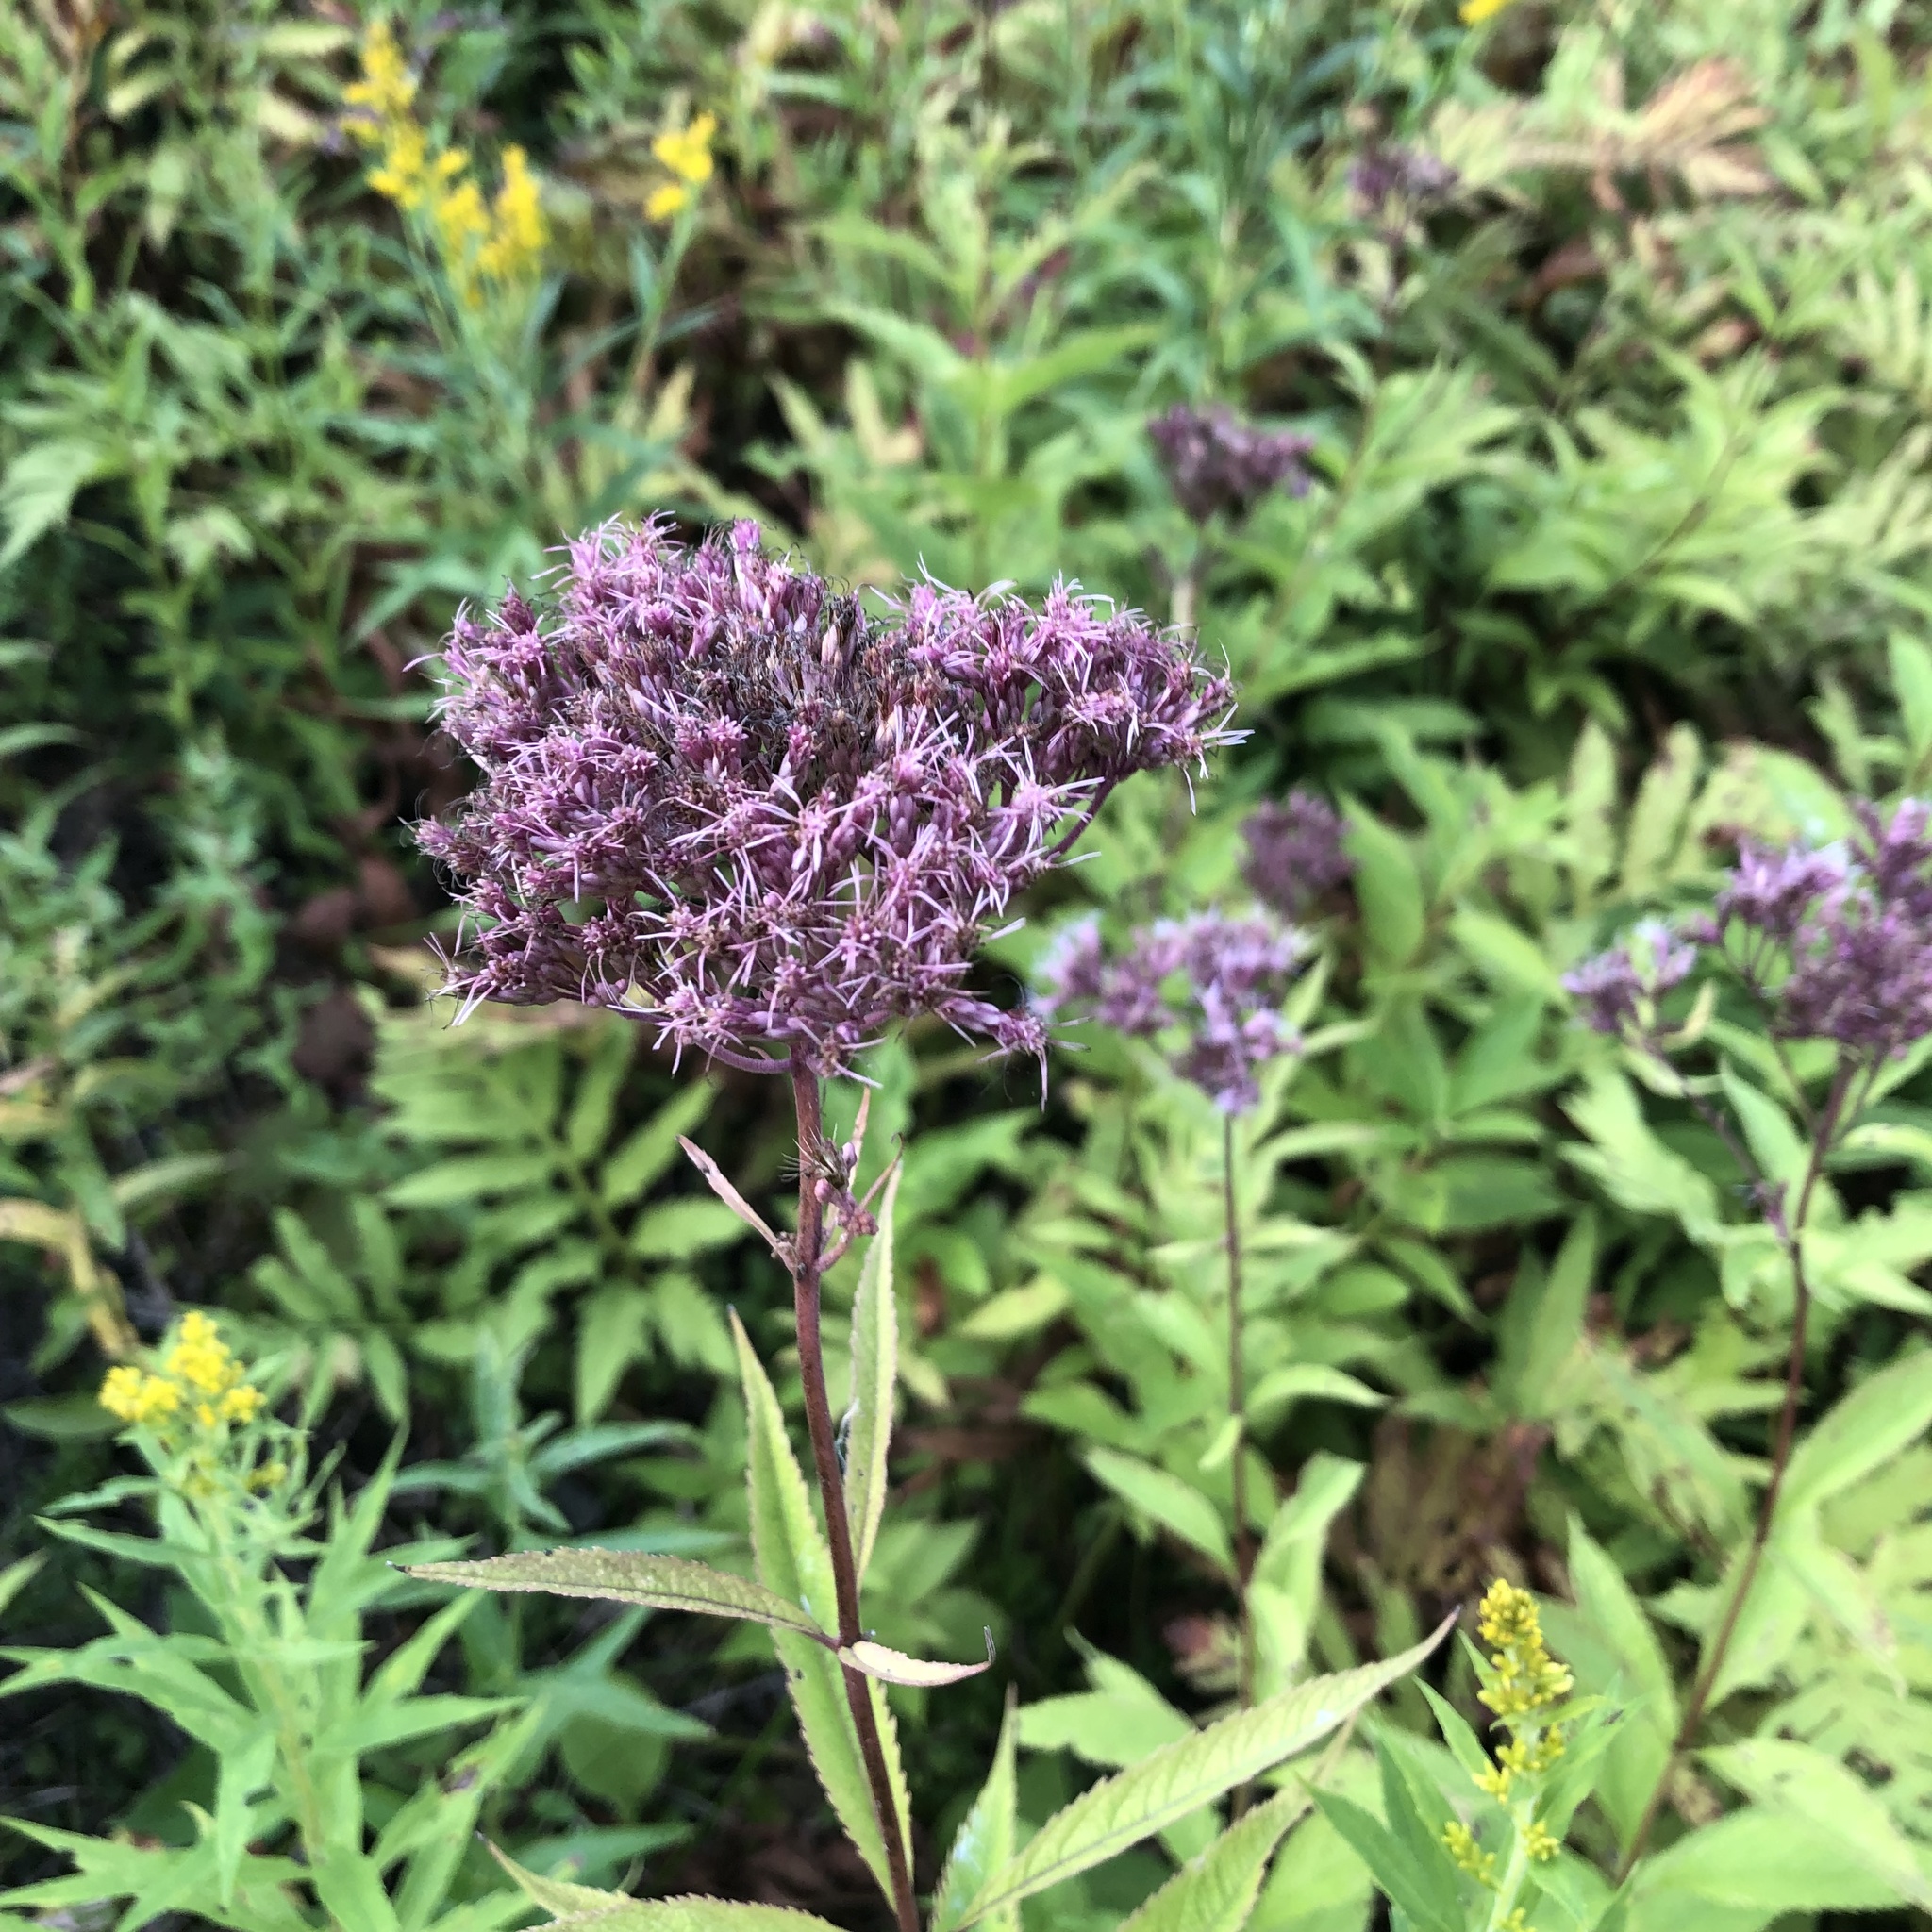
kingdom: Plantae
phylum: Tracheophyta
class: Magnoliopsida
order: Asterales
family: Asteraceae
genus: Eutrochium
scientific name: Eutrochium maculatum
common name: Spotted joe pye weed
